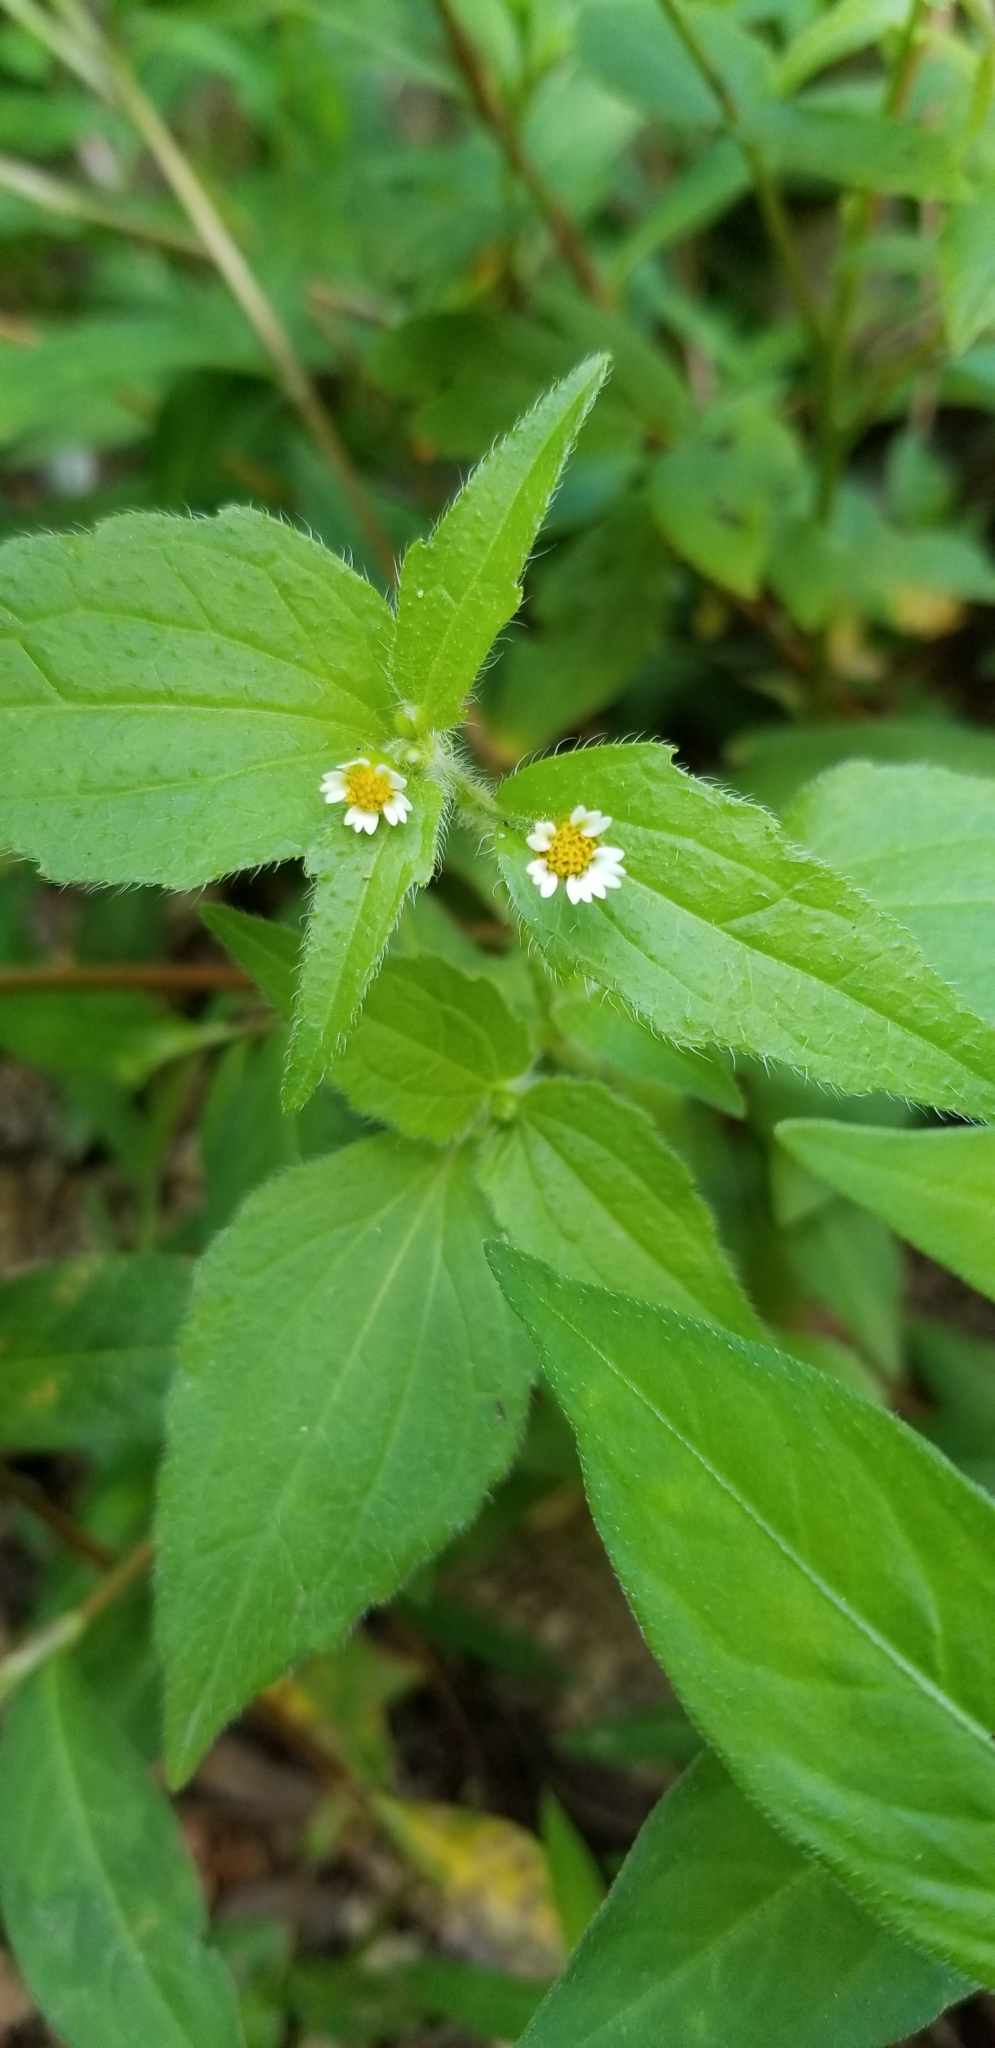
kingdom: Plantae
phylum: Tracheophyta
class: Magnoliopsida
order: Asterales
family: Asteraceae
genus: Galinsoga
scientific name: Galinsoga quadriradiata
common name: Shaggy soldier
